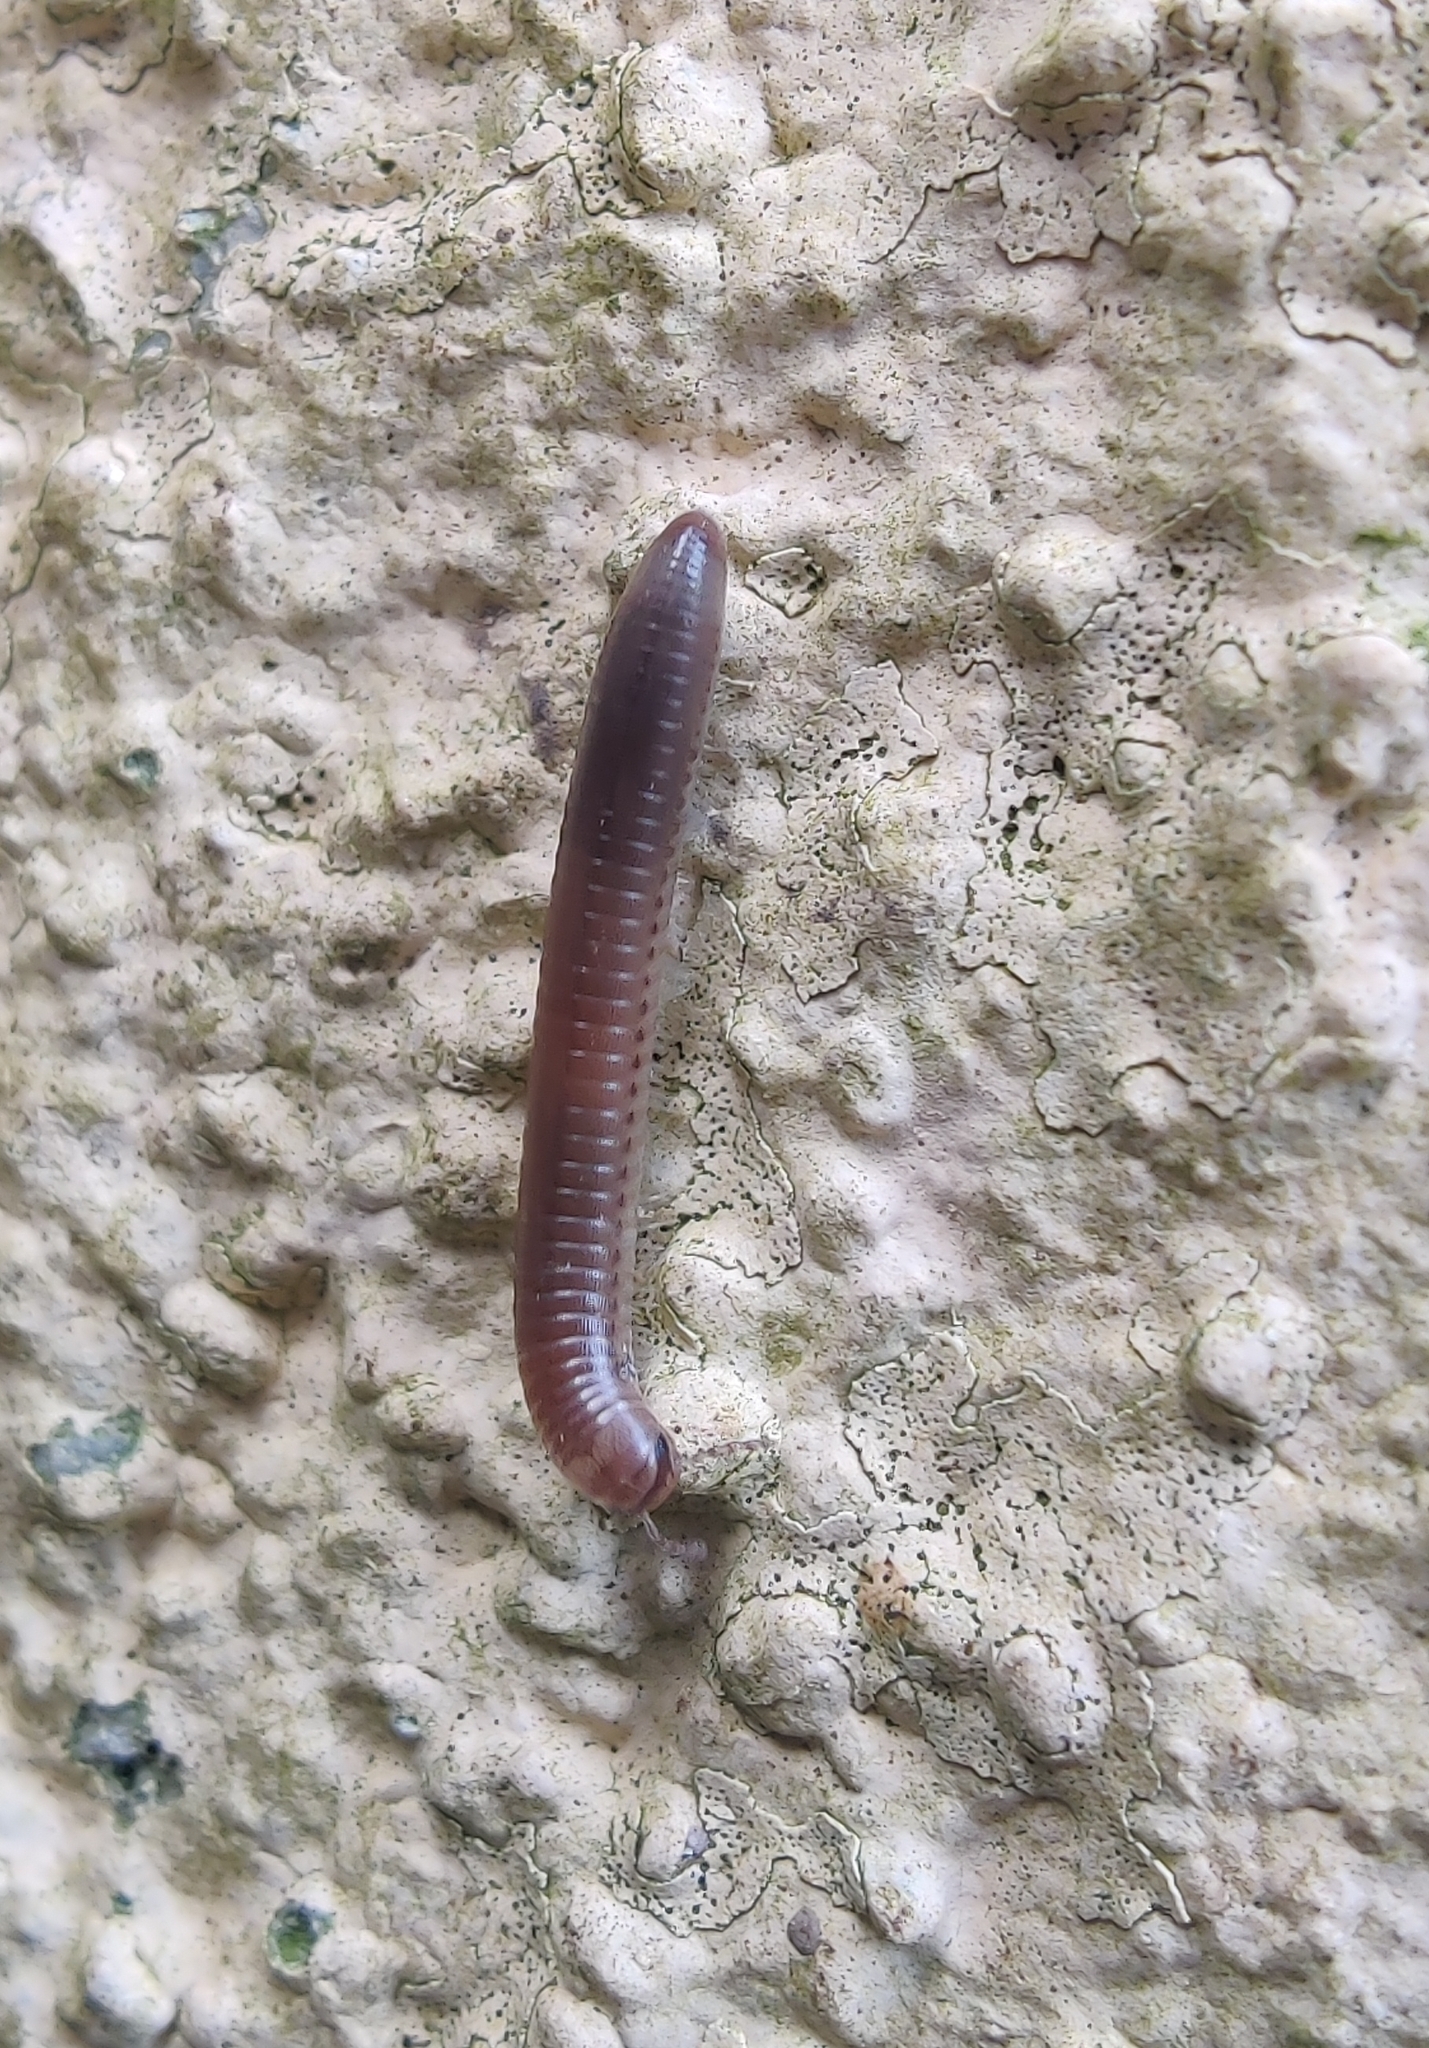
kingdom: Animalia
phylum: Arthropoda
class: Diplopoda
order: Julida
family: Julidae
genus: Pachyiulus
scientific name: Pachyiulus flavipes
